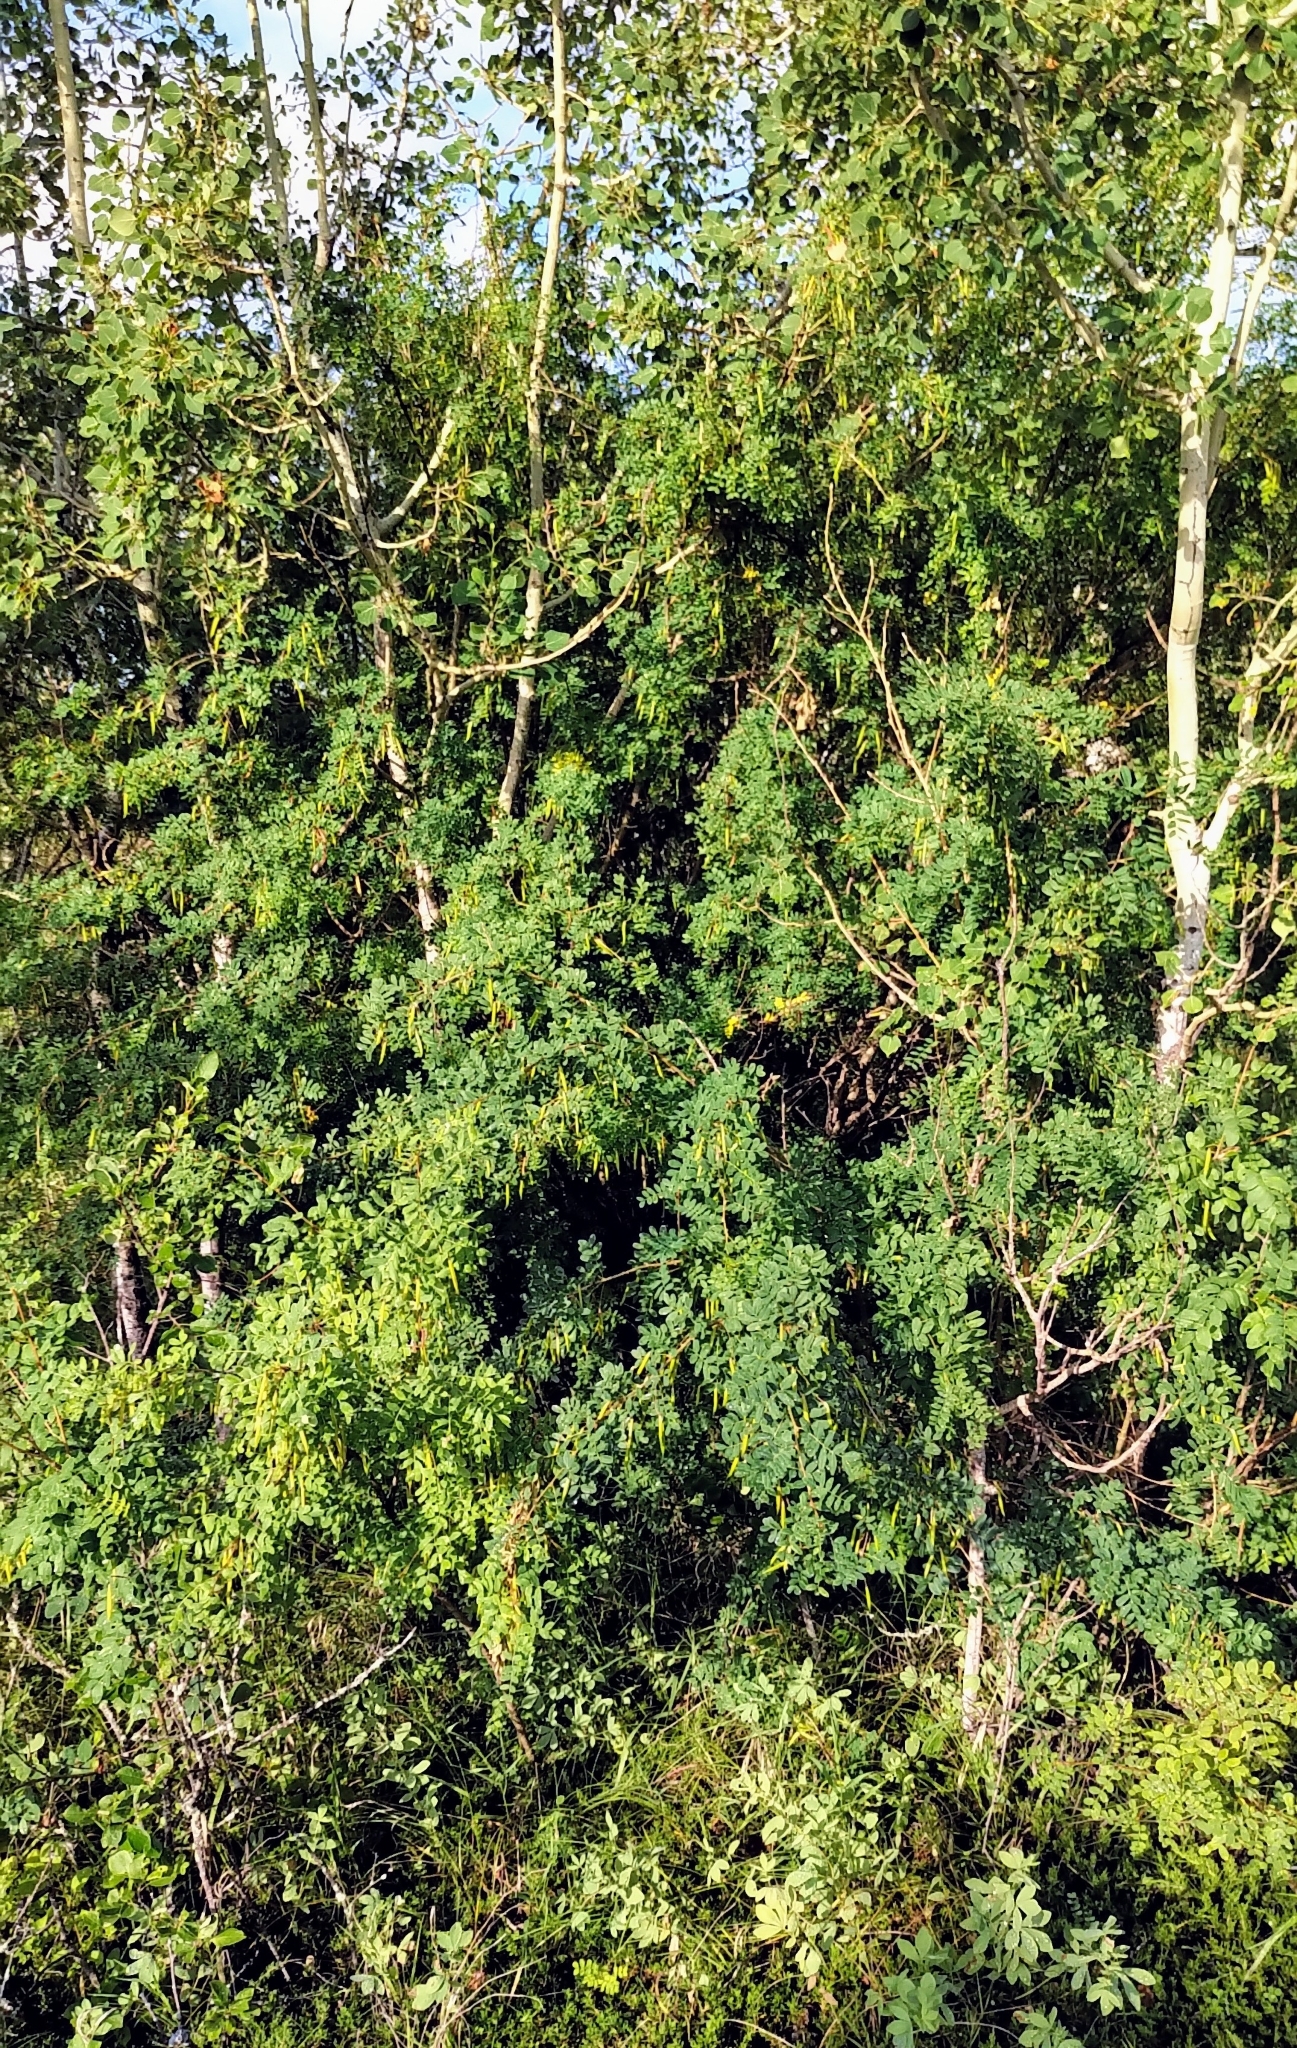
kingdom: Plantae
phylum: Tracheophyta
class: Magnoliopsida
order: Fabales
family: Fabaceae
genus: Caragana
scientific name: Caragana arborescens
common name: Siberian peashrub
